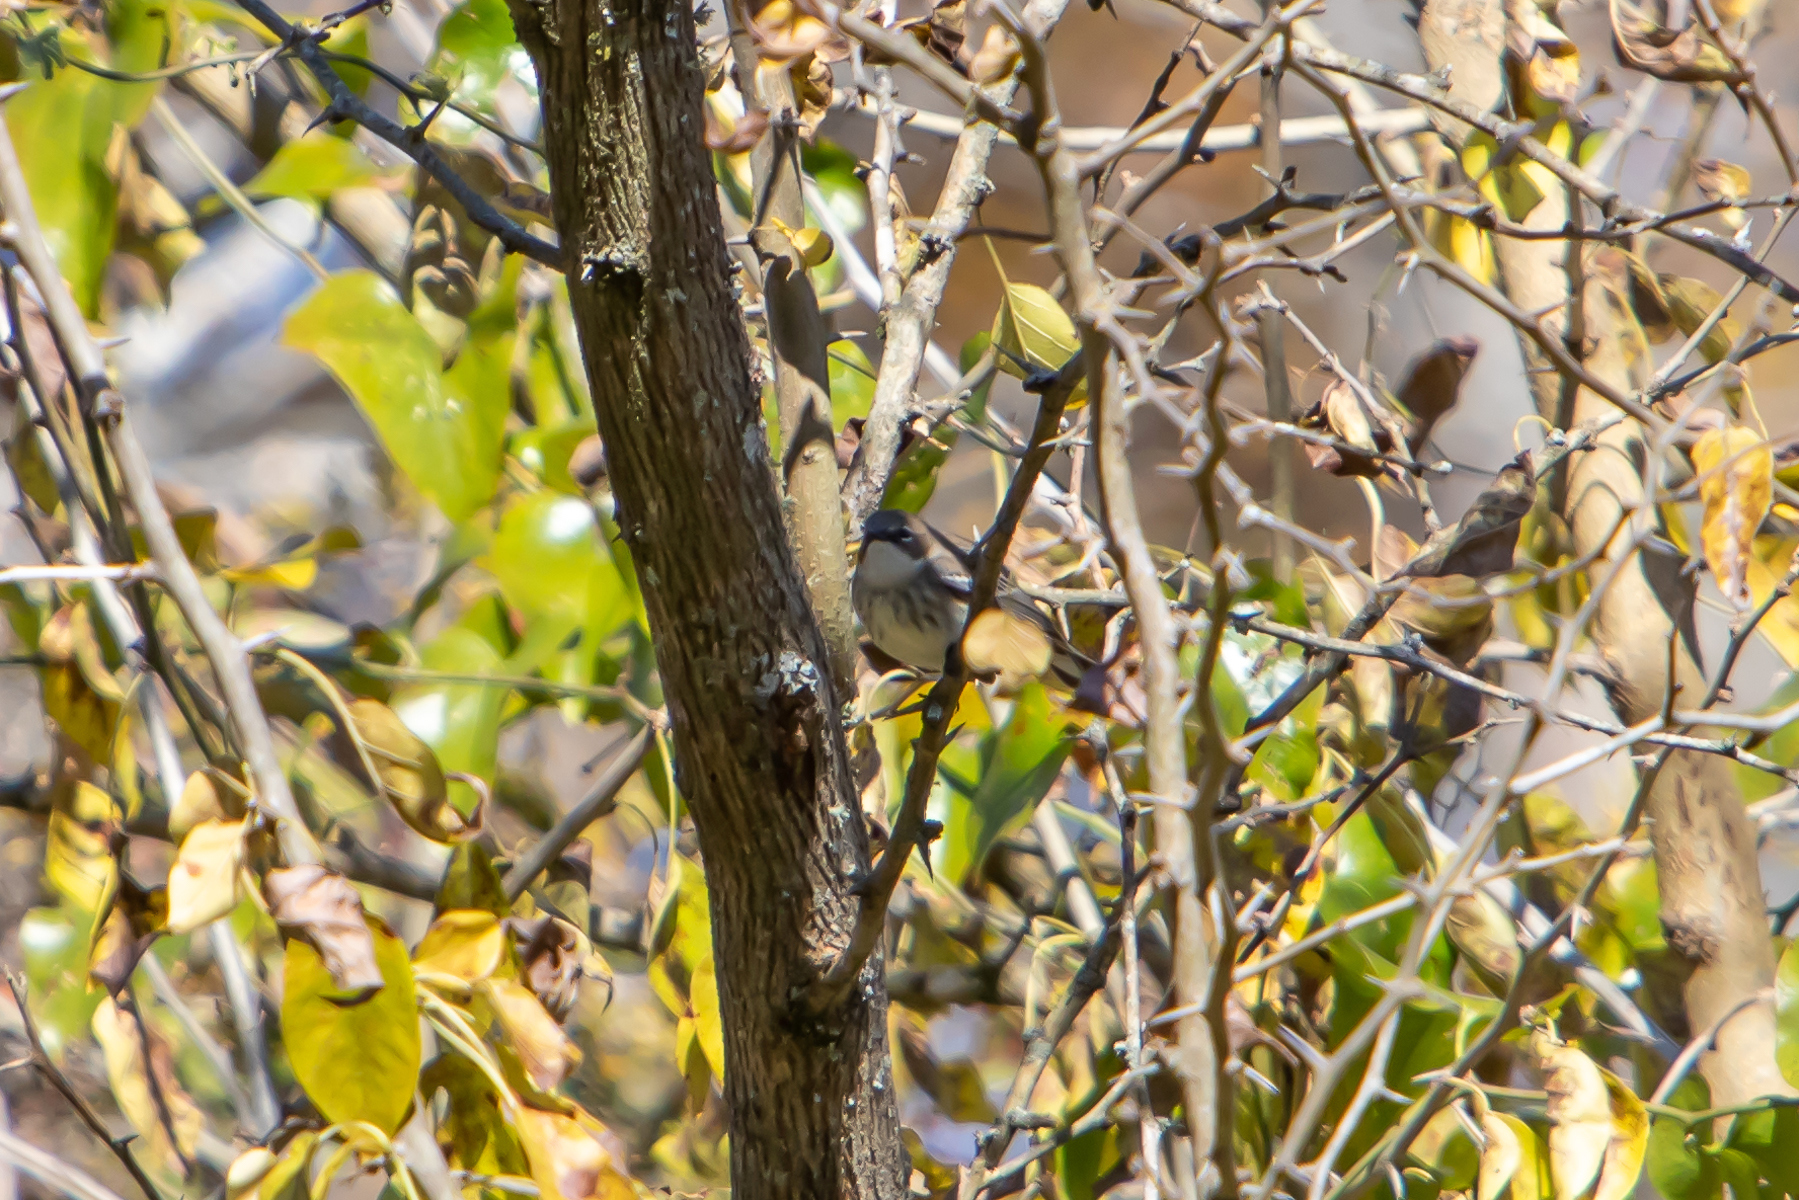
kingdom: Animalia
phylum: Chordata
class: Aves
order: Passeriformes
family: Parulidae
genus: Setophaga
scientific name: Setophaga coronata
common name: Myrtle warbler
